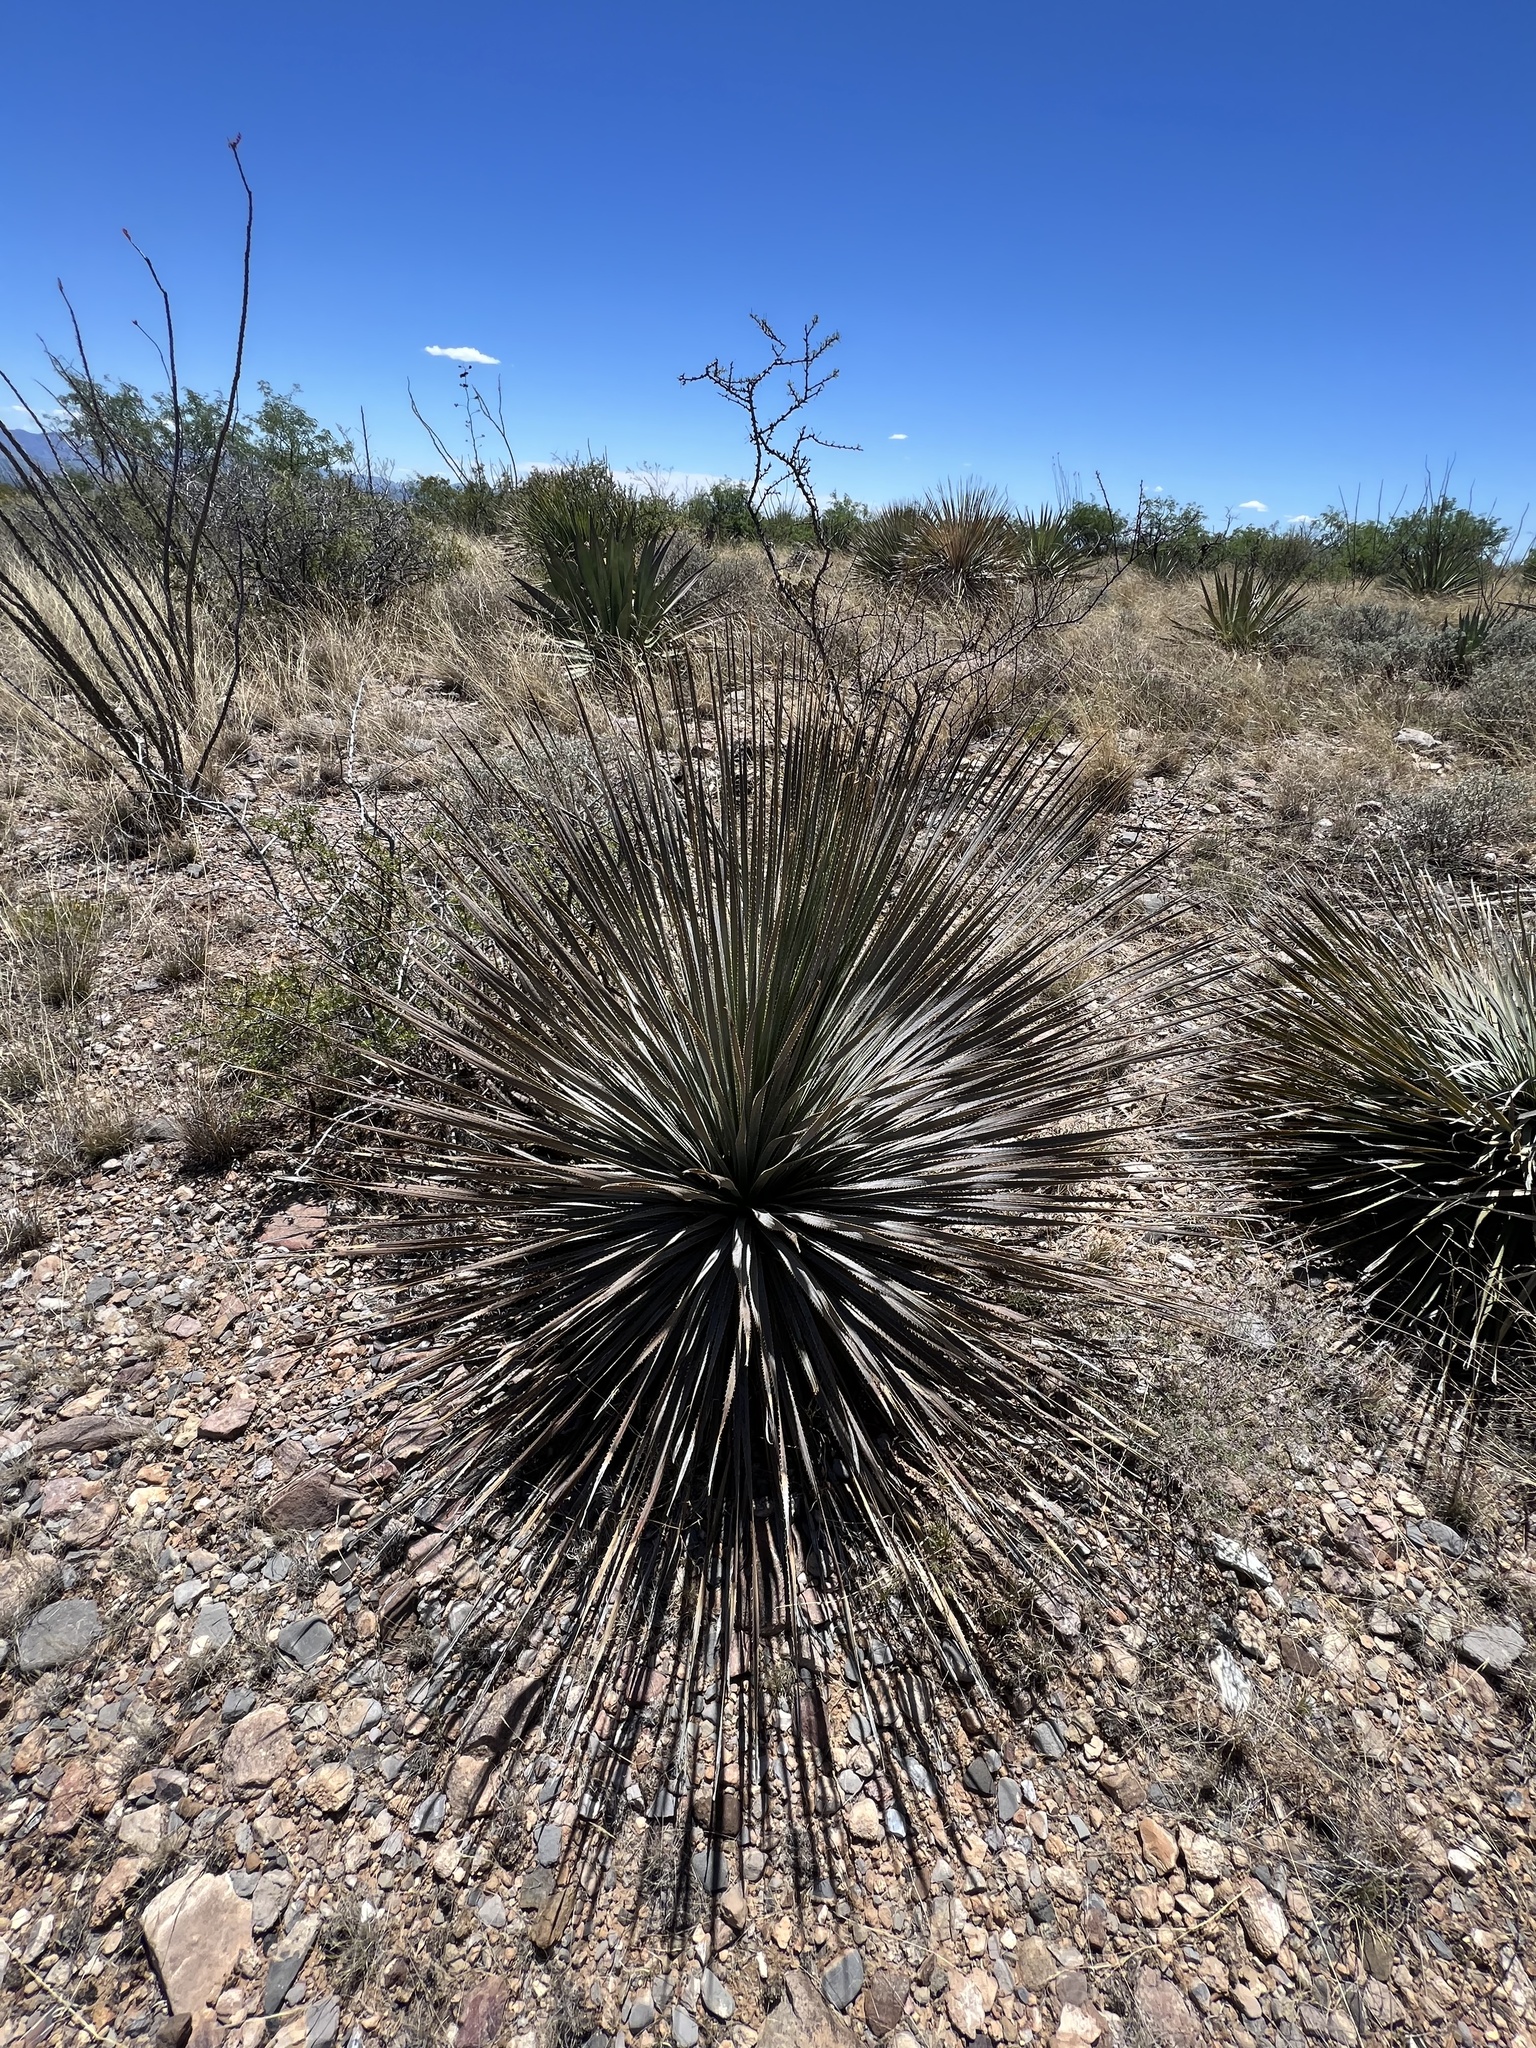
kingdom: Plantae
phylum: Tracheophyta
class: Liliopsida
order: Asparagales
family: Asparagaceae
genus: Dasylirion
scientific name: Dasylirion wheeleri
